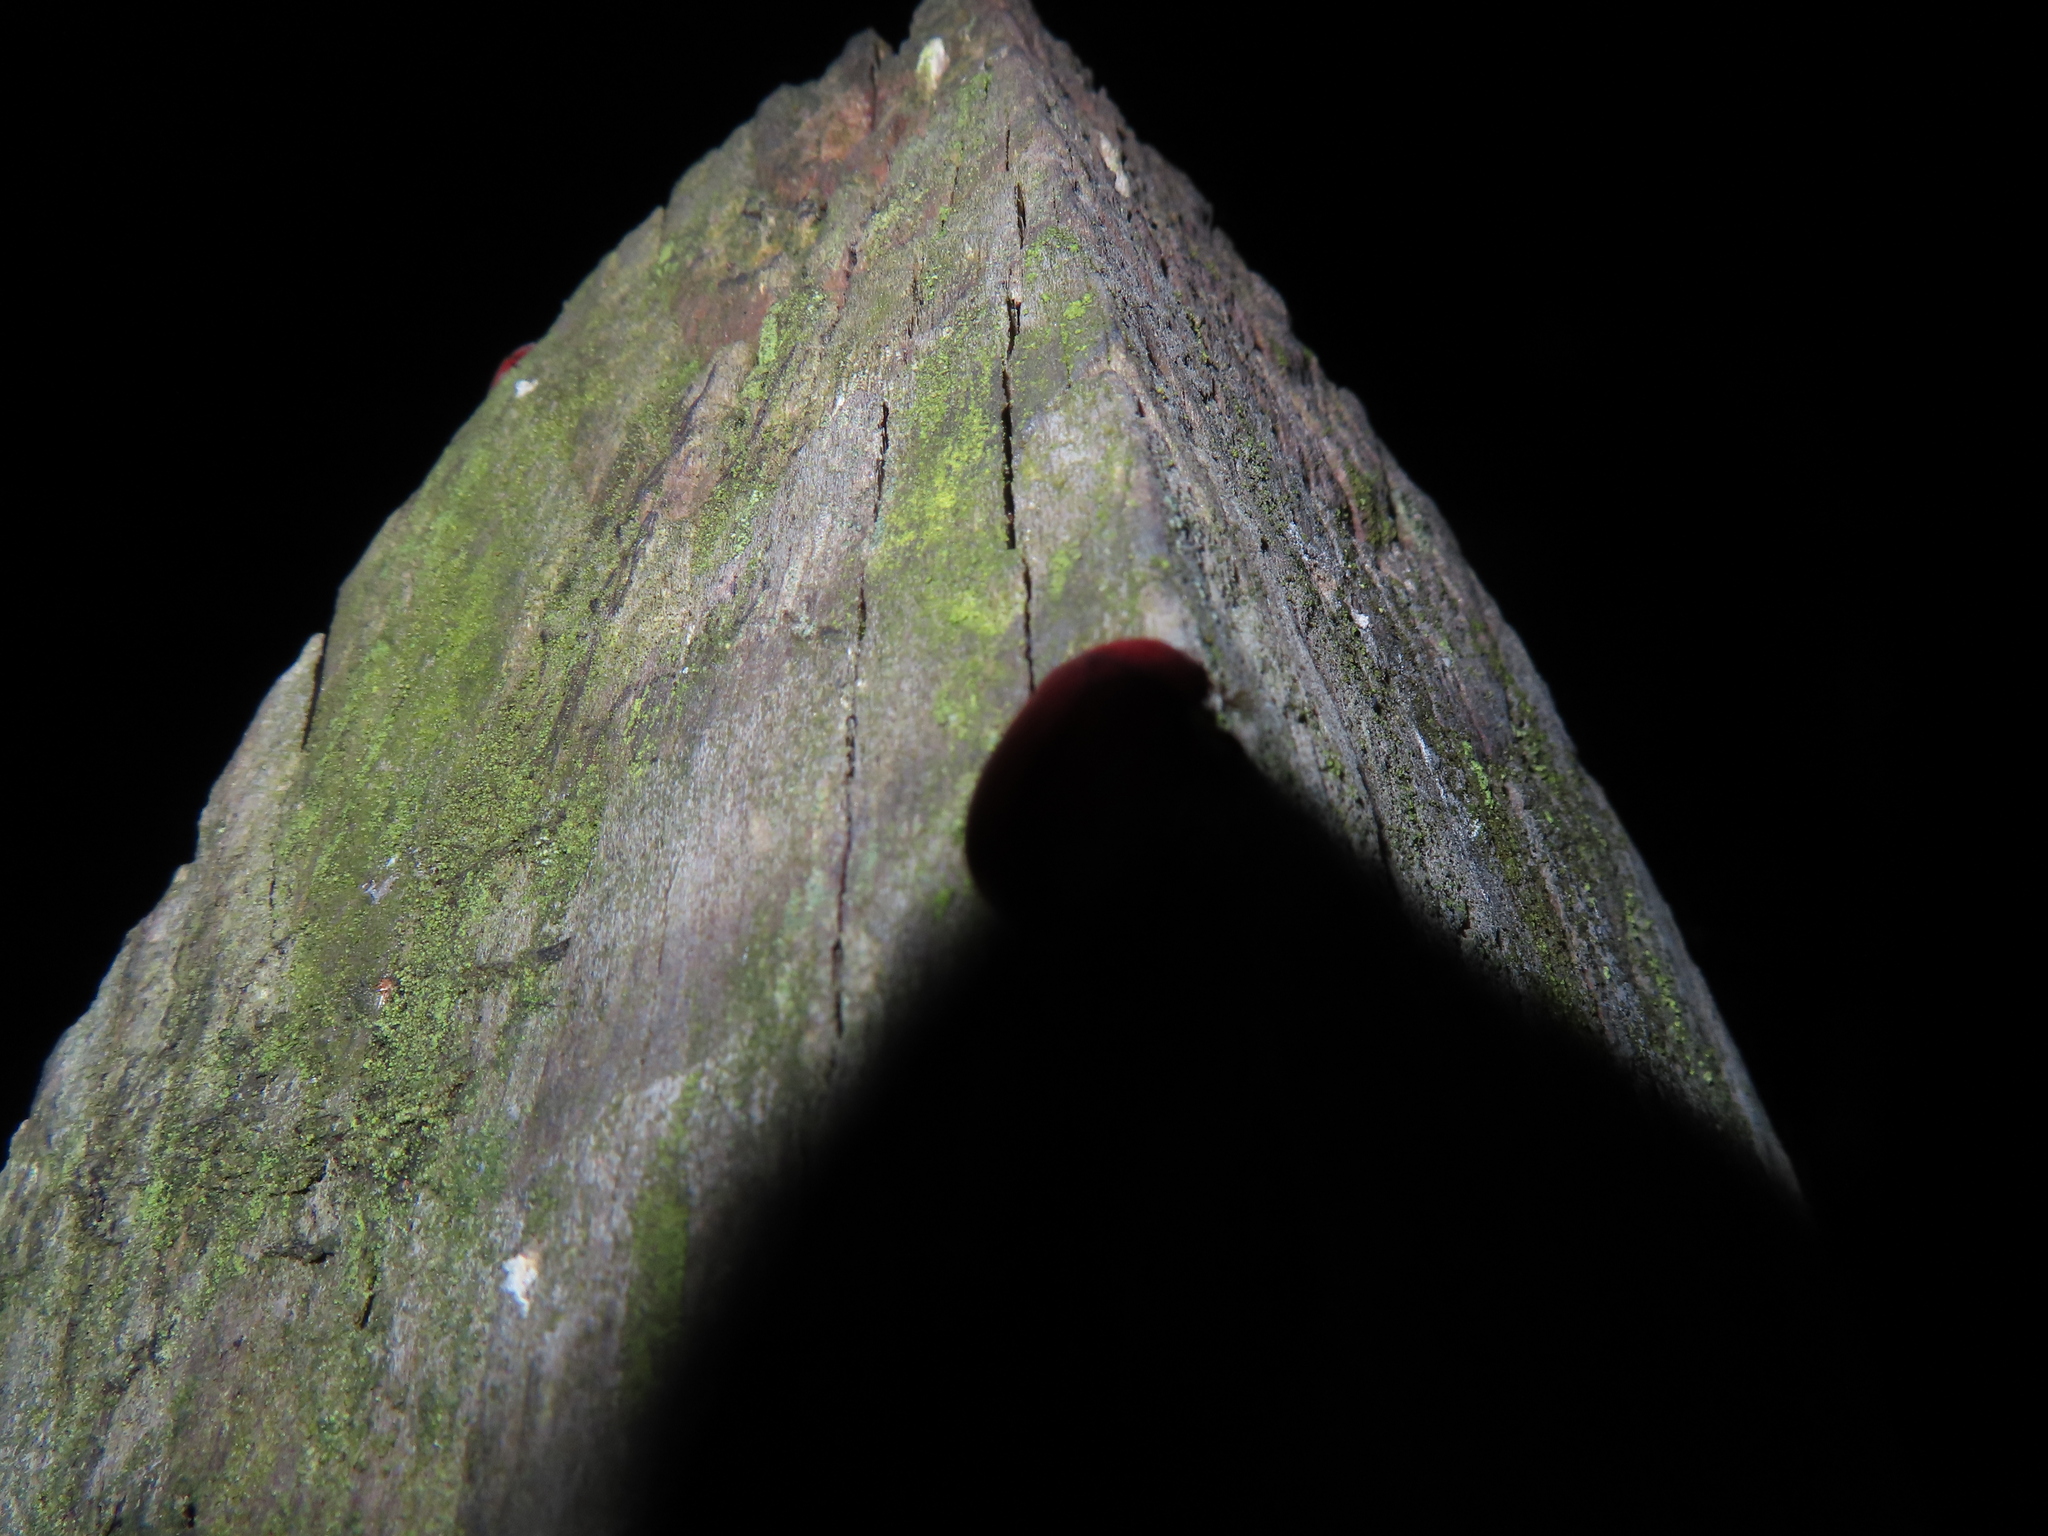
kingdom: Animalia
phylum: Arthropoda
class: Insecta
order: Coleoptera
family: Scarabaeidae
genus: Maladera
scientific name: Maladera formosae
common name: Asiatic garden beetle
